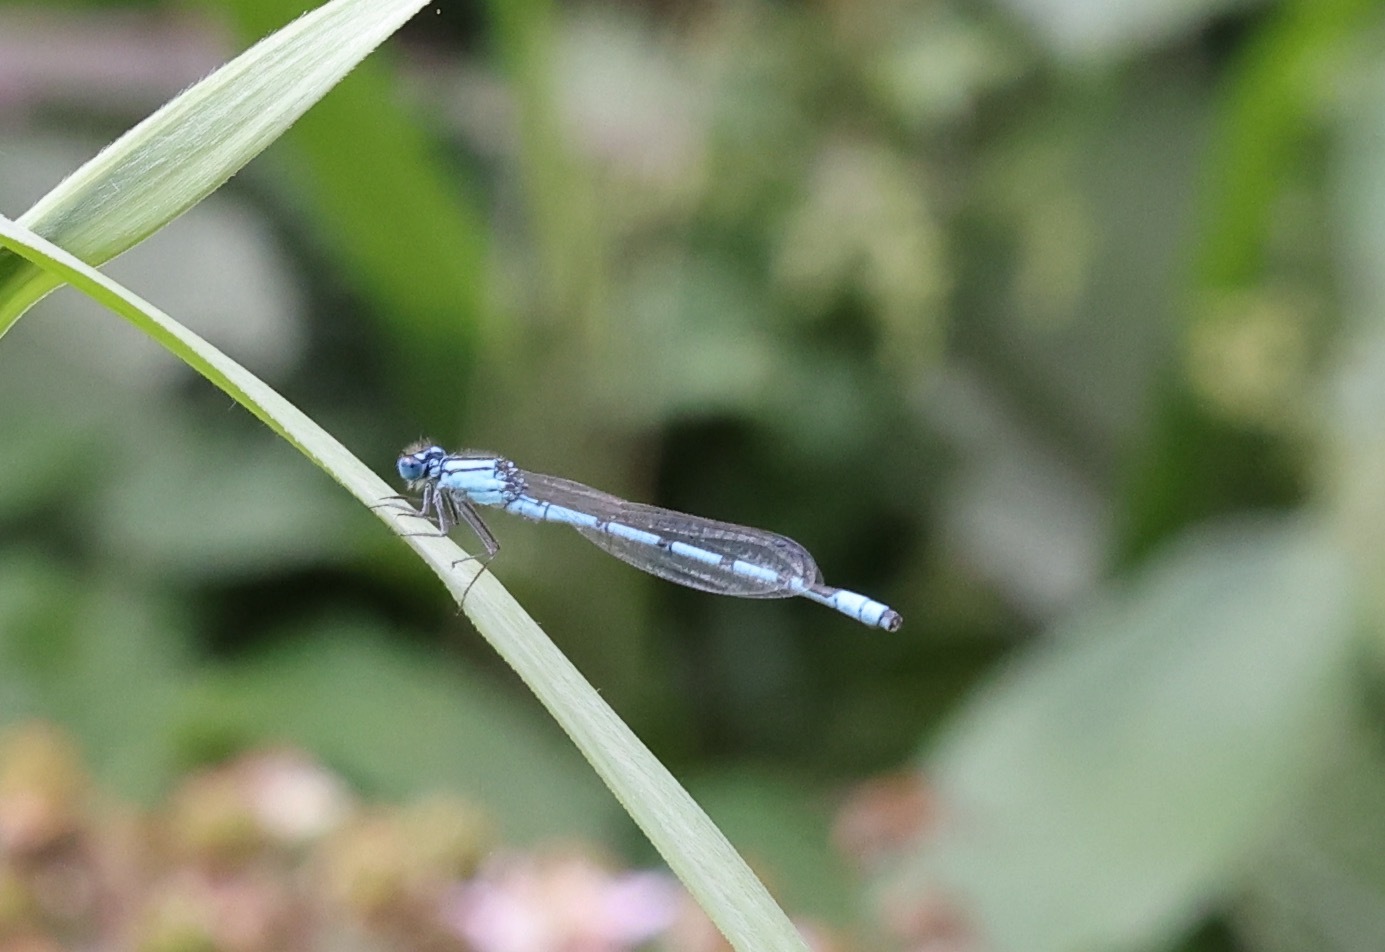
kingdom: Animalia
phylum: Arthropoda
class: Insecta
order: Odonata
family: Coenagrionidae
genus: Enallagma
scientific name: Enallagma cyathigerum
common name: Common blue damselfly
